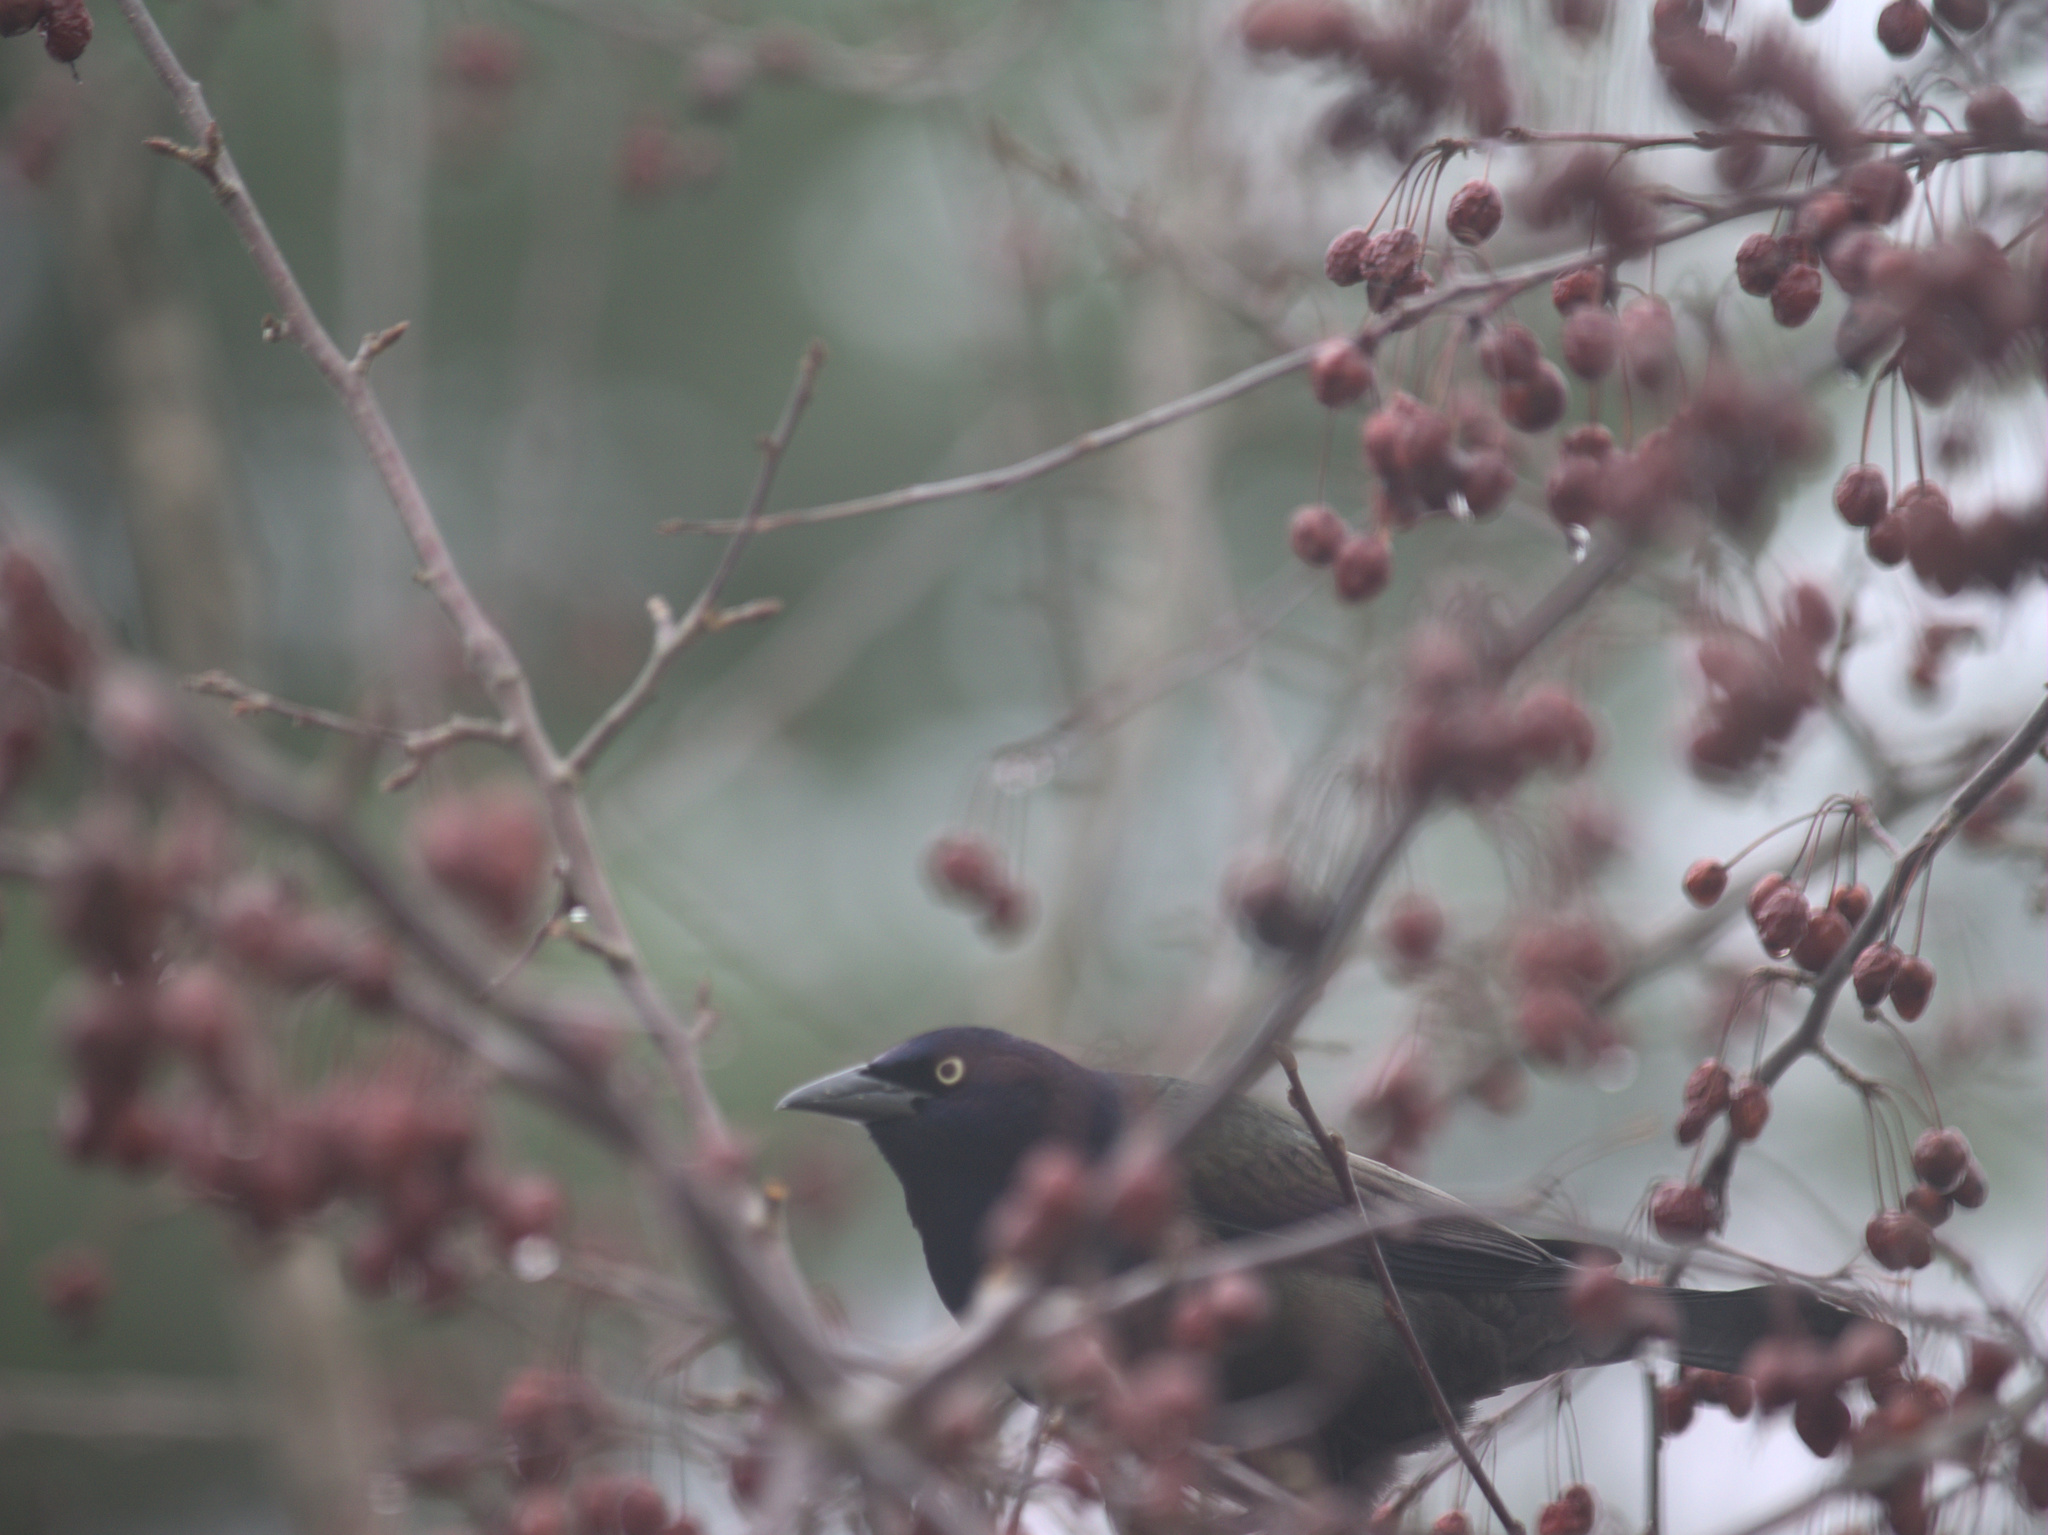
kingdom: Animalia
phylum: Chordata
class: Aves
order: Passeriformes
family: Icteridae
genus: Quiscalus
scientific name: Quiscalus quiscula
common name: Common grackle
